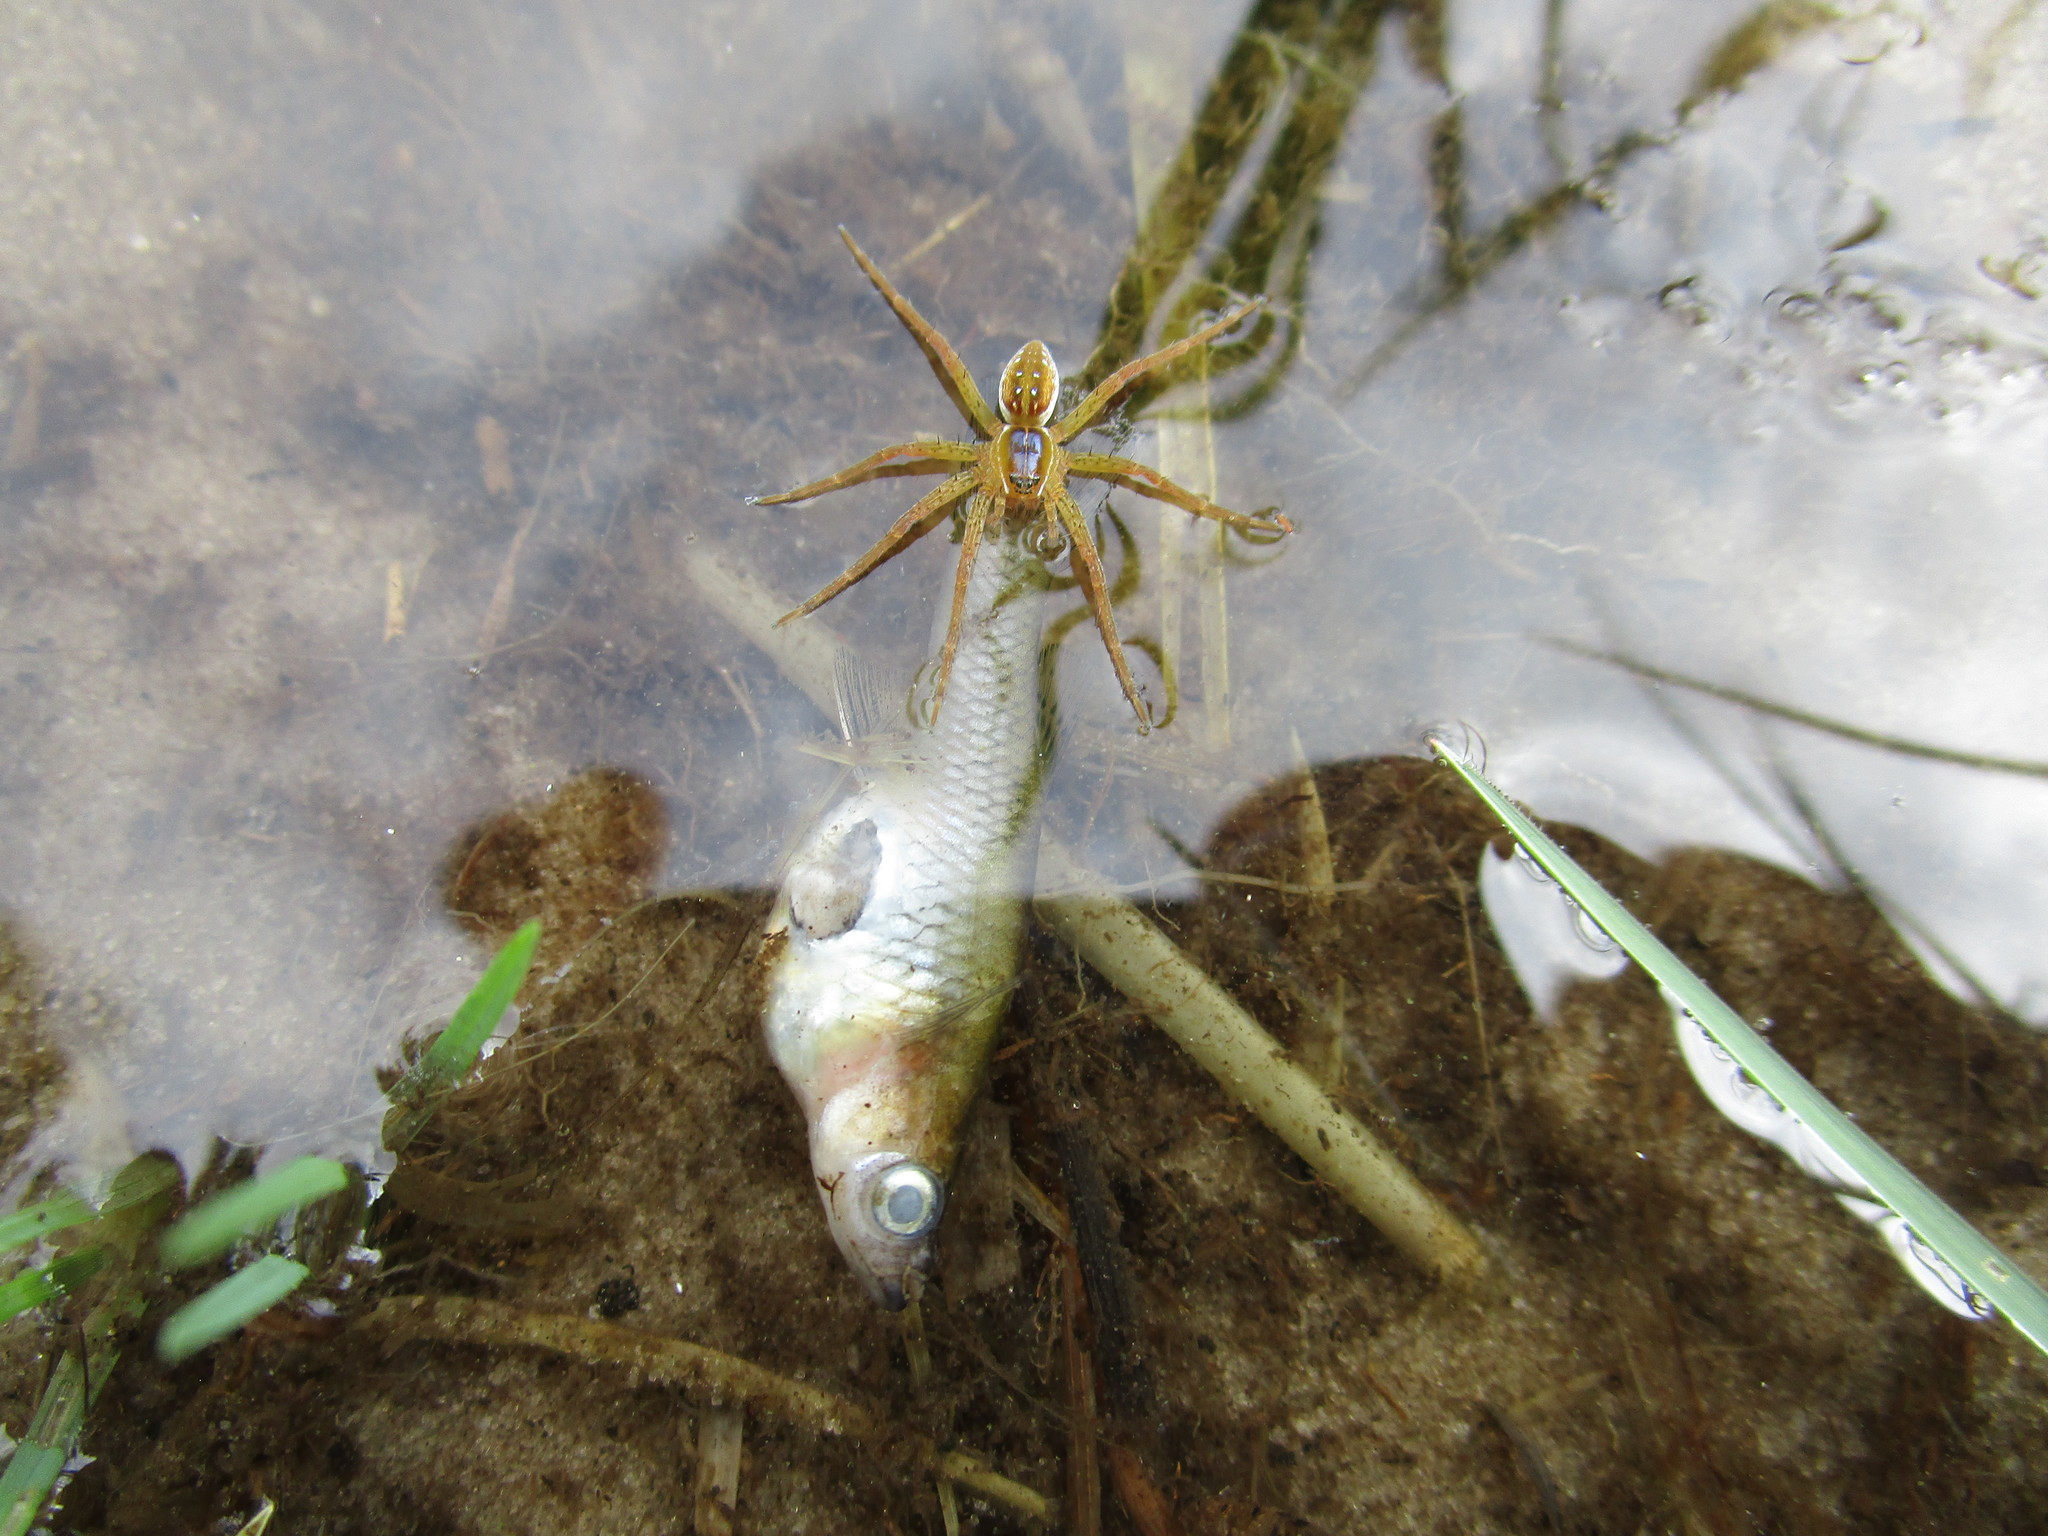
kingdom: Animalia
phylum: Arthropoda
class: Arachnida
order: Araneae
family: Pisauridae
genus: Dolomedes
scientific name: Dolomedes triton
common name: Six-spotted fishing spider
